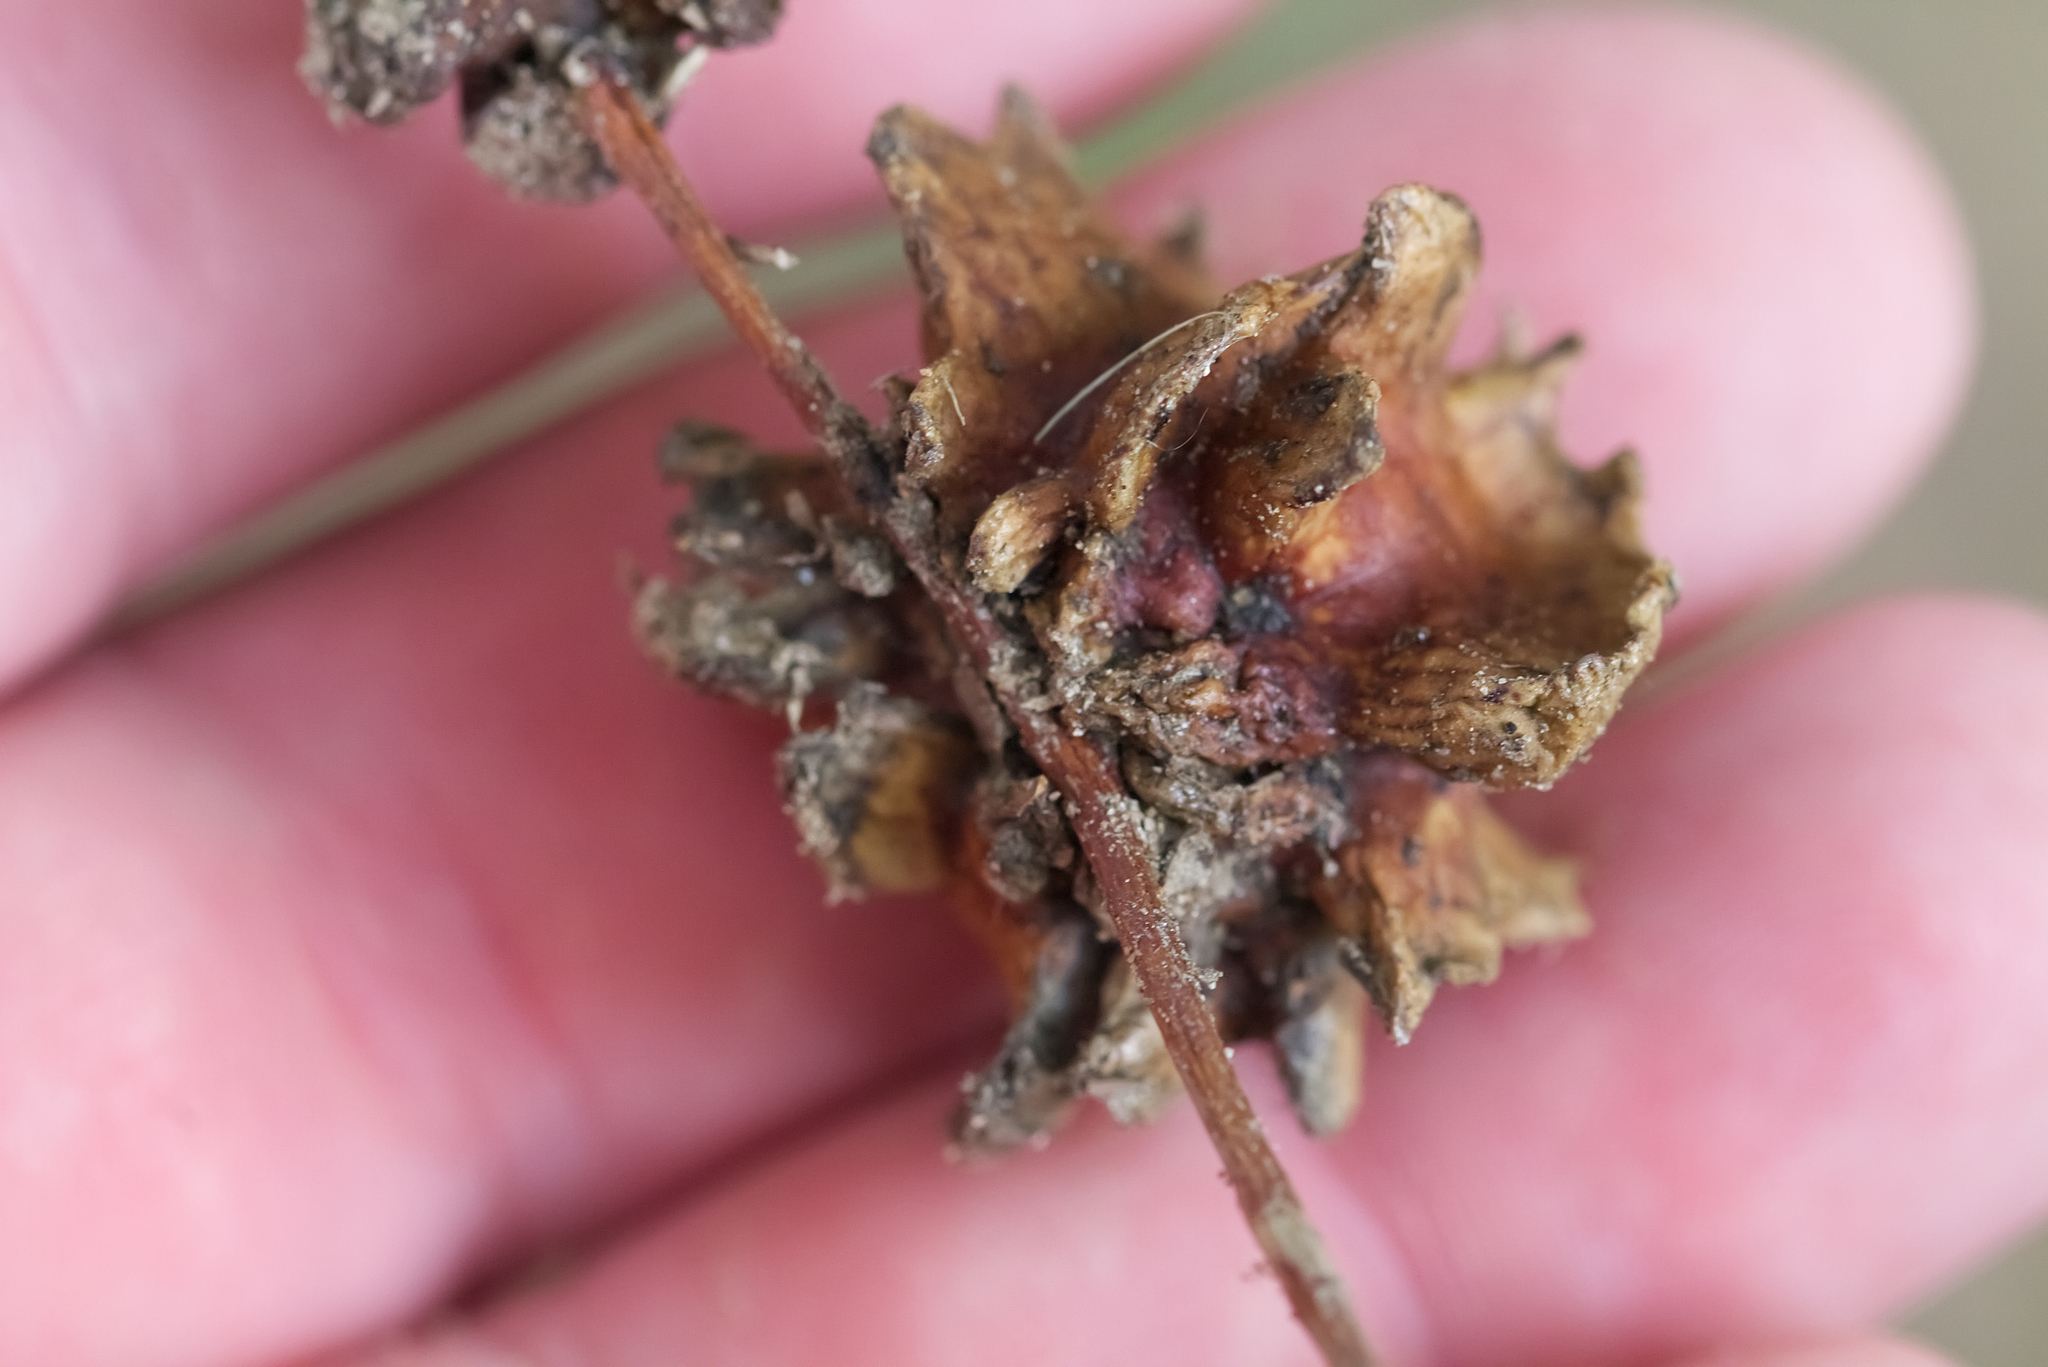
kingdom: Animalia
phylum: Arthropoda
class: Insecta
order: Hymenoptera
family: Cynipidae
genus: Andricus
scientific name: Andricus quercuscalicis
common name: Knopper gall
